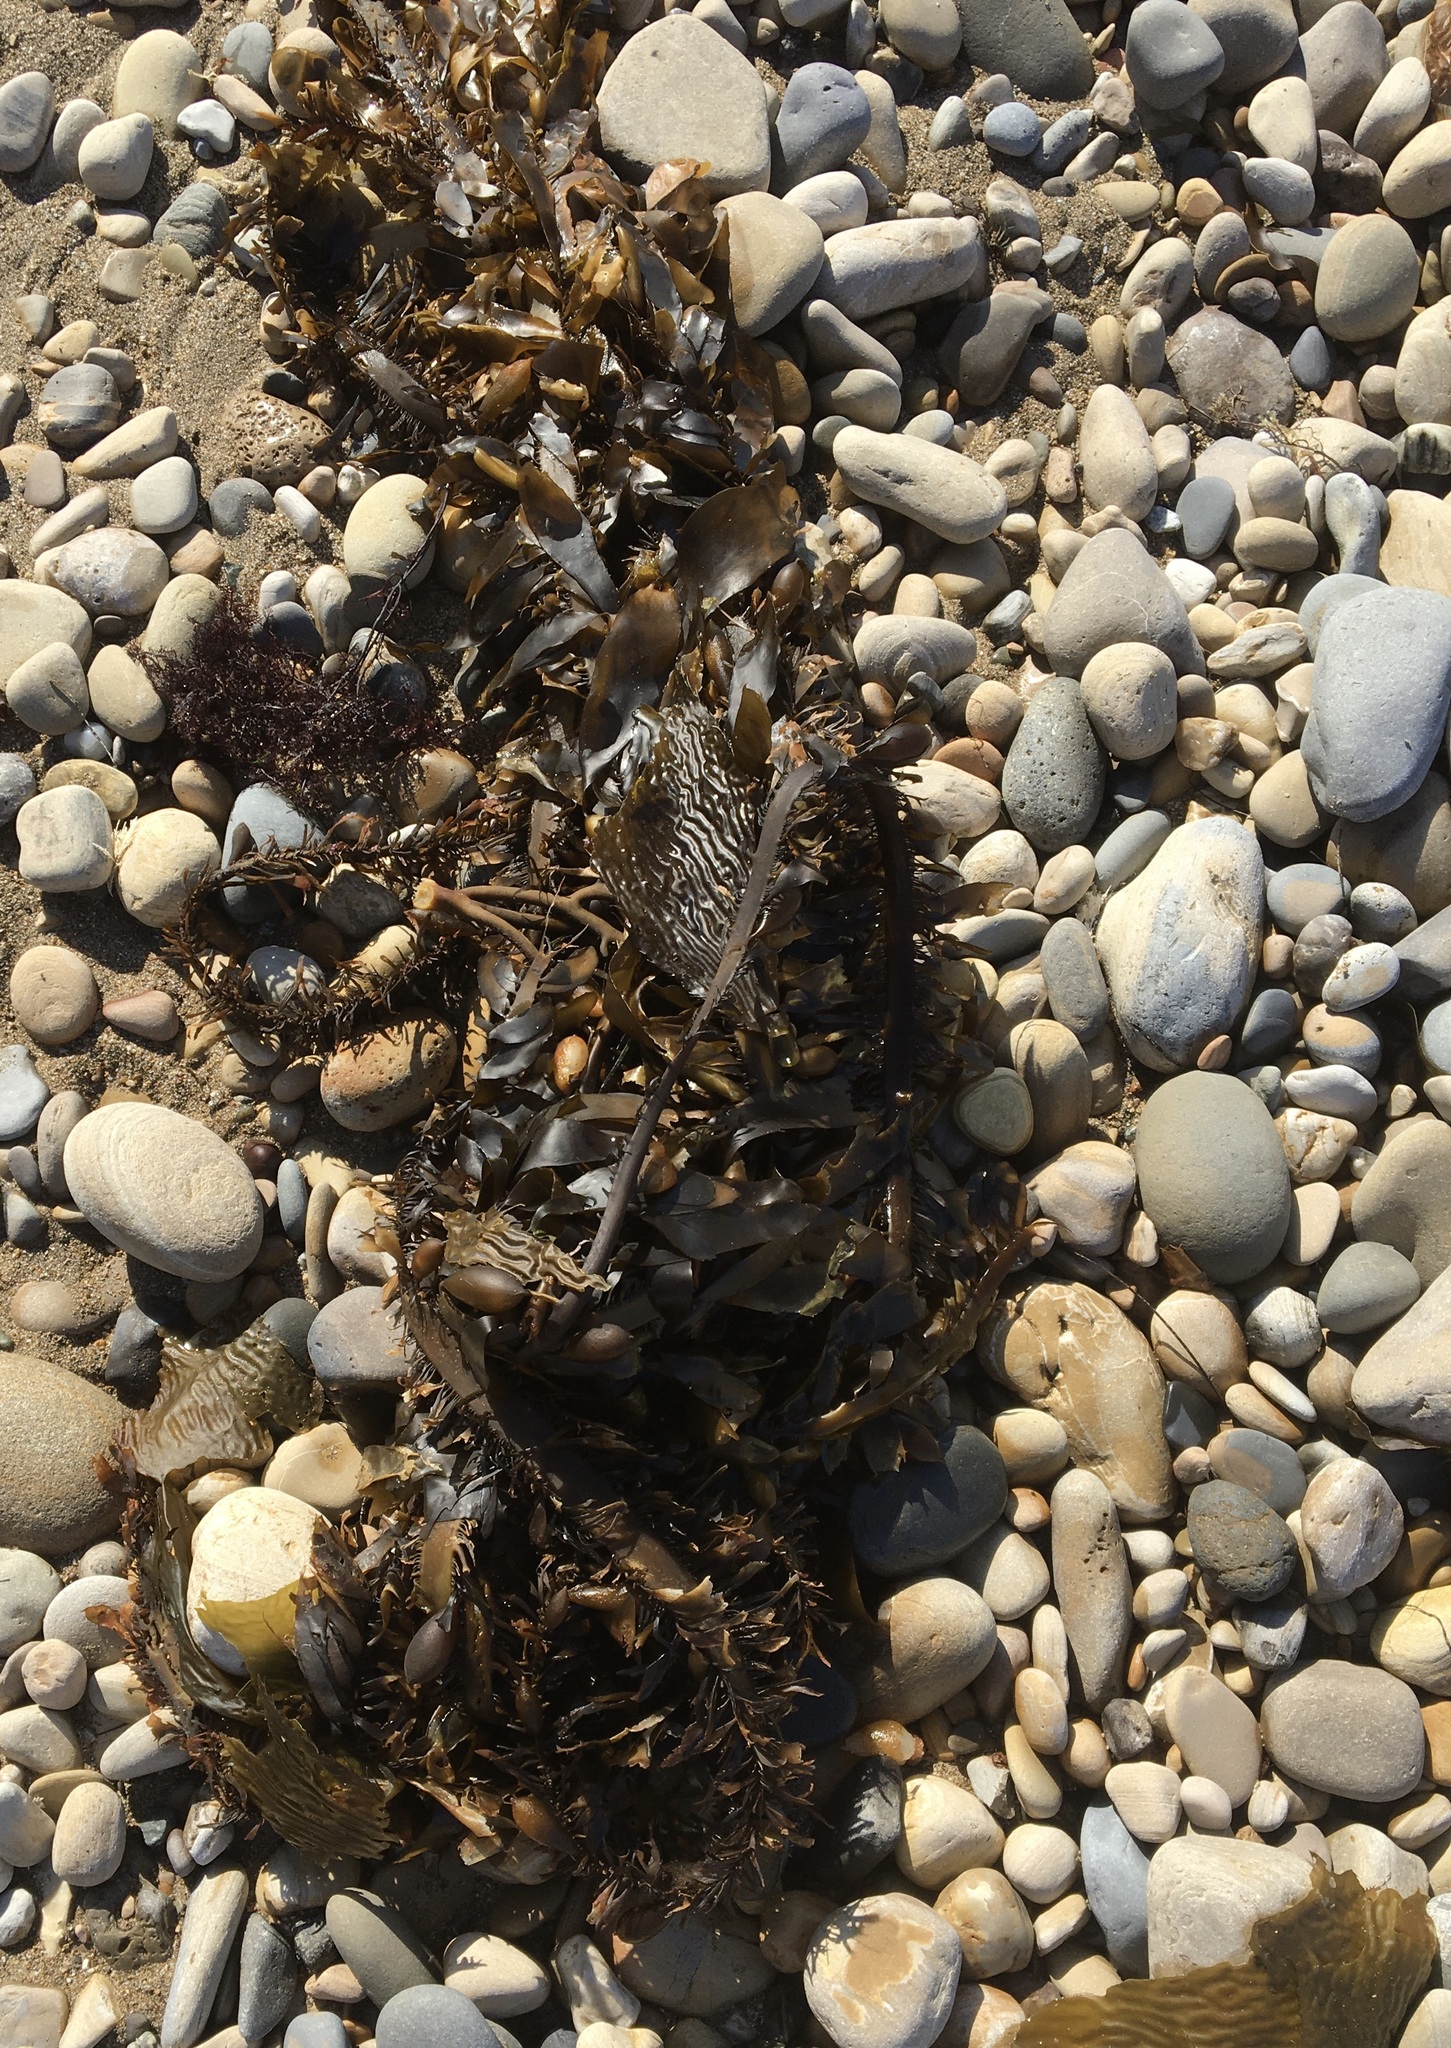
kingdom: Chromista
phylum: Ochrophyta
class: Phaeophyceae
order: Laminariales
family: Lessoniaceae
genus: Egregia
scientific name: Egregia menziesii
